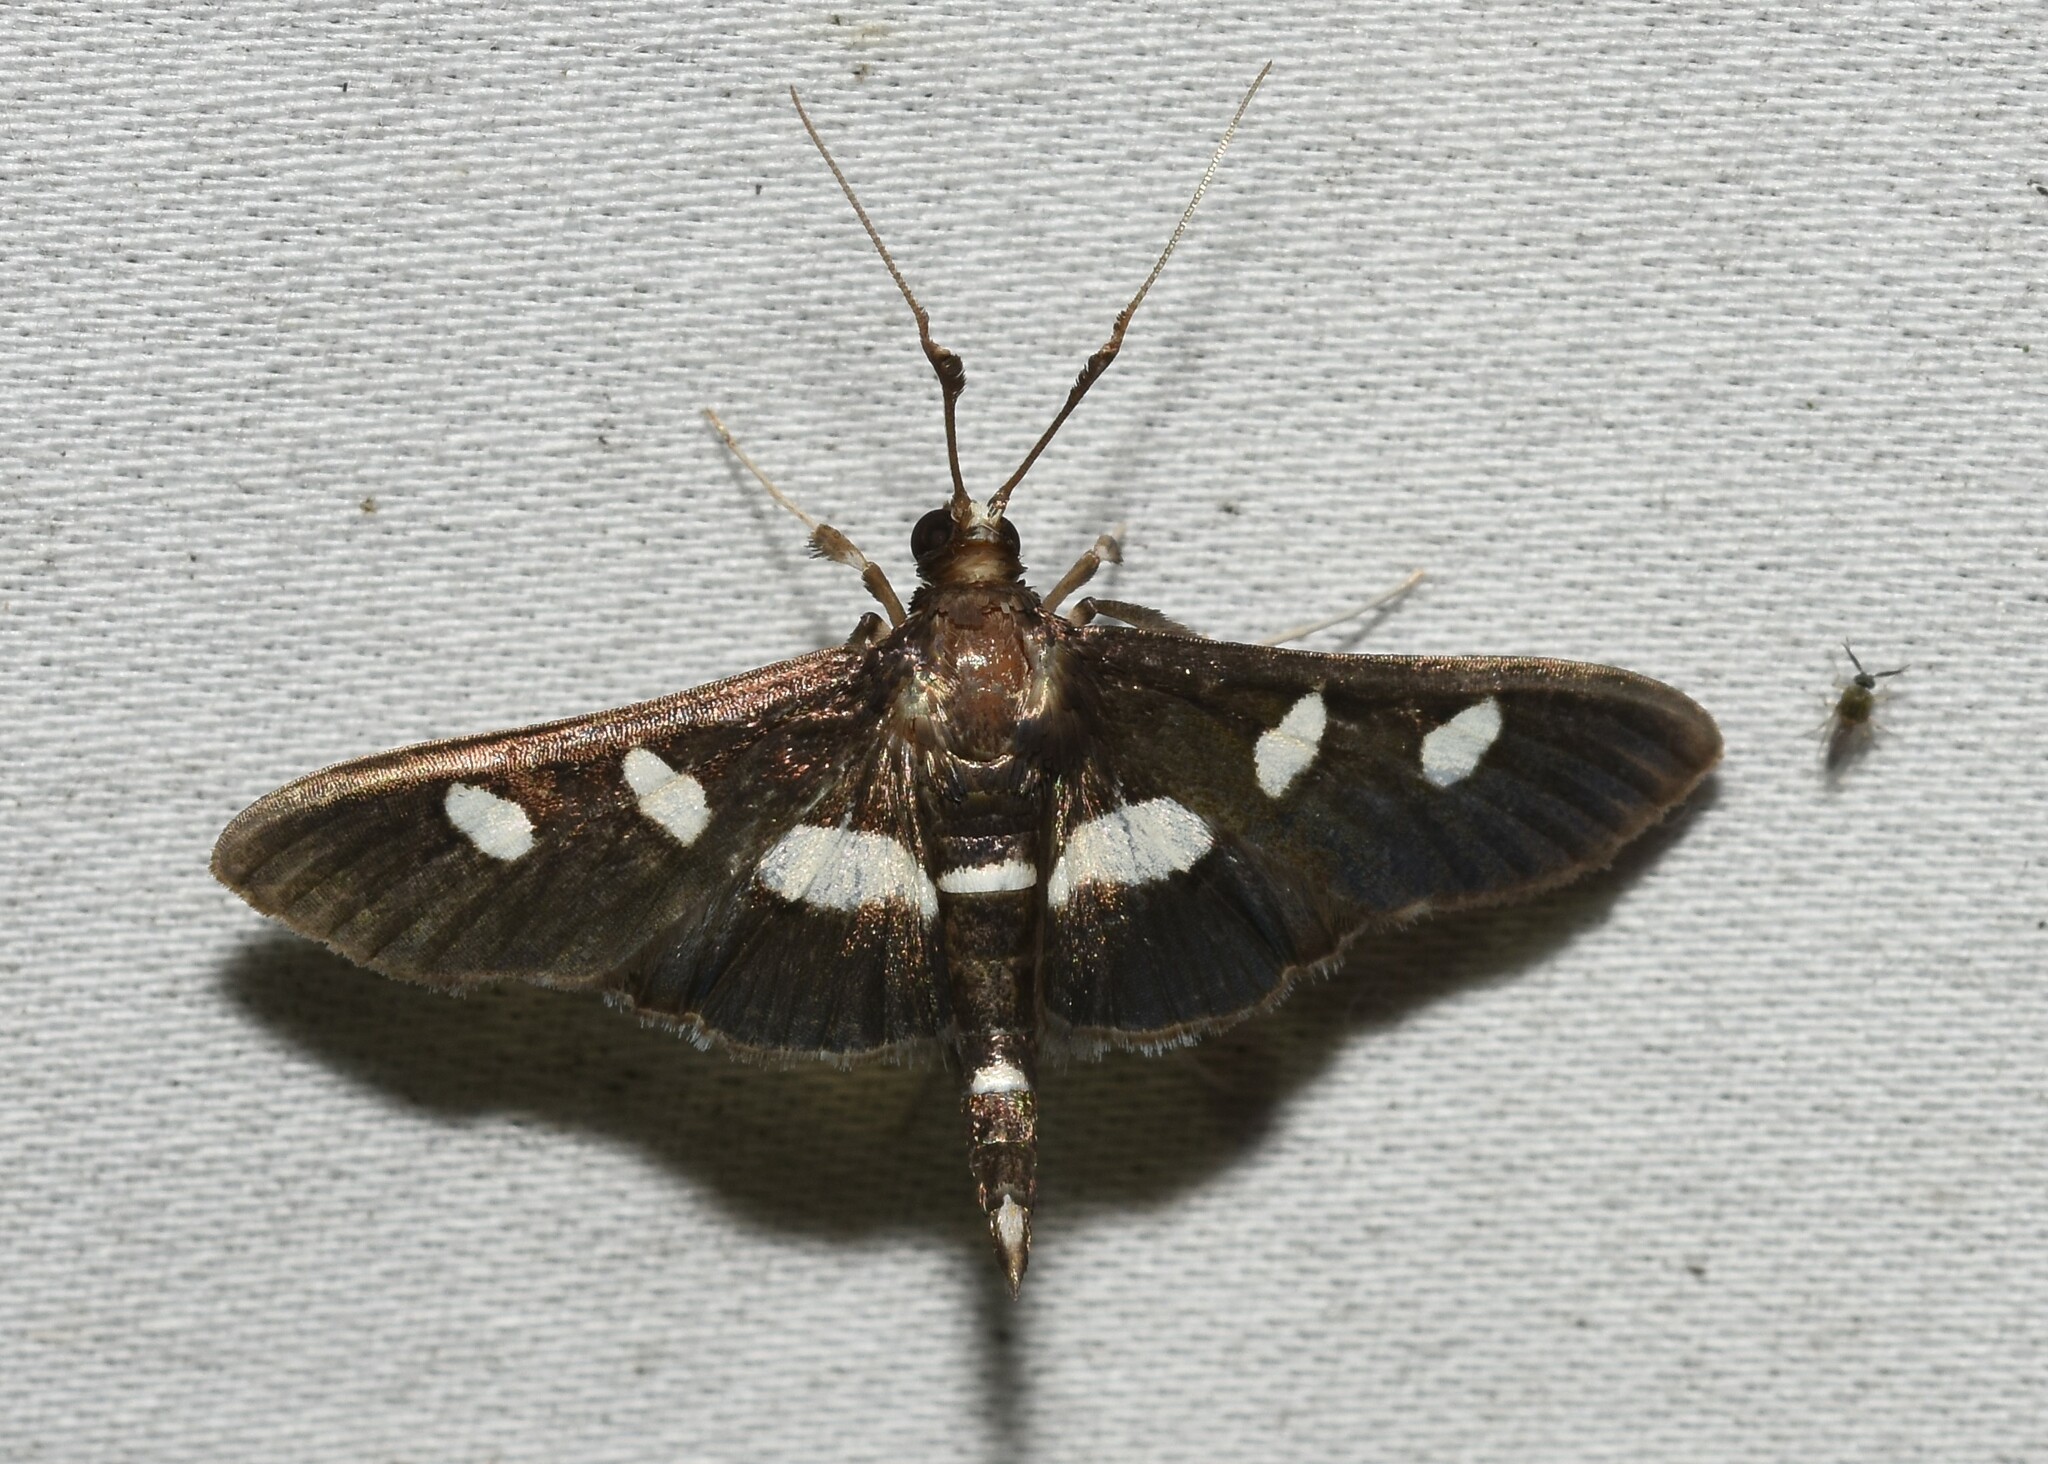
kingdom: Animalia
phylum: Arthropoda
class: Insecta
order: Lepidoptera
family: Crambidae
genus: Desmia
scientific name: Desmia
